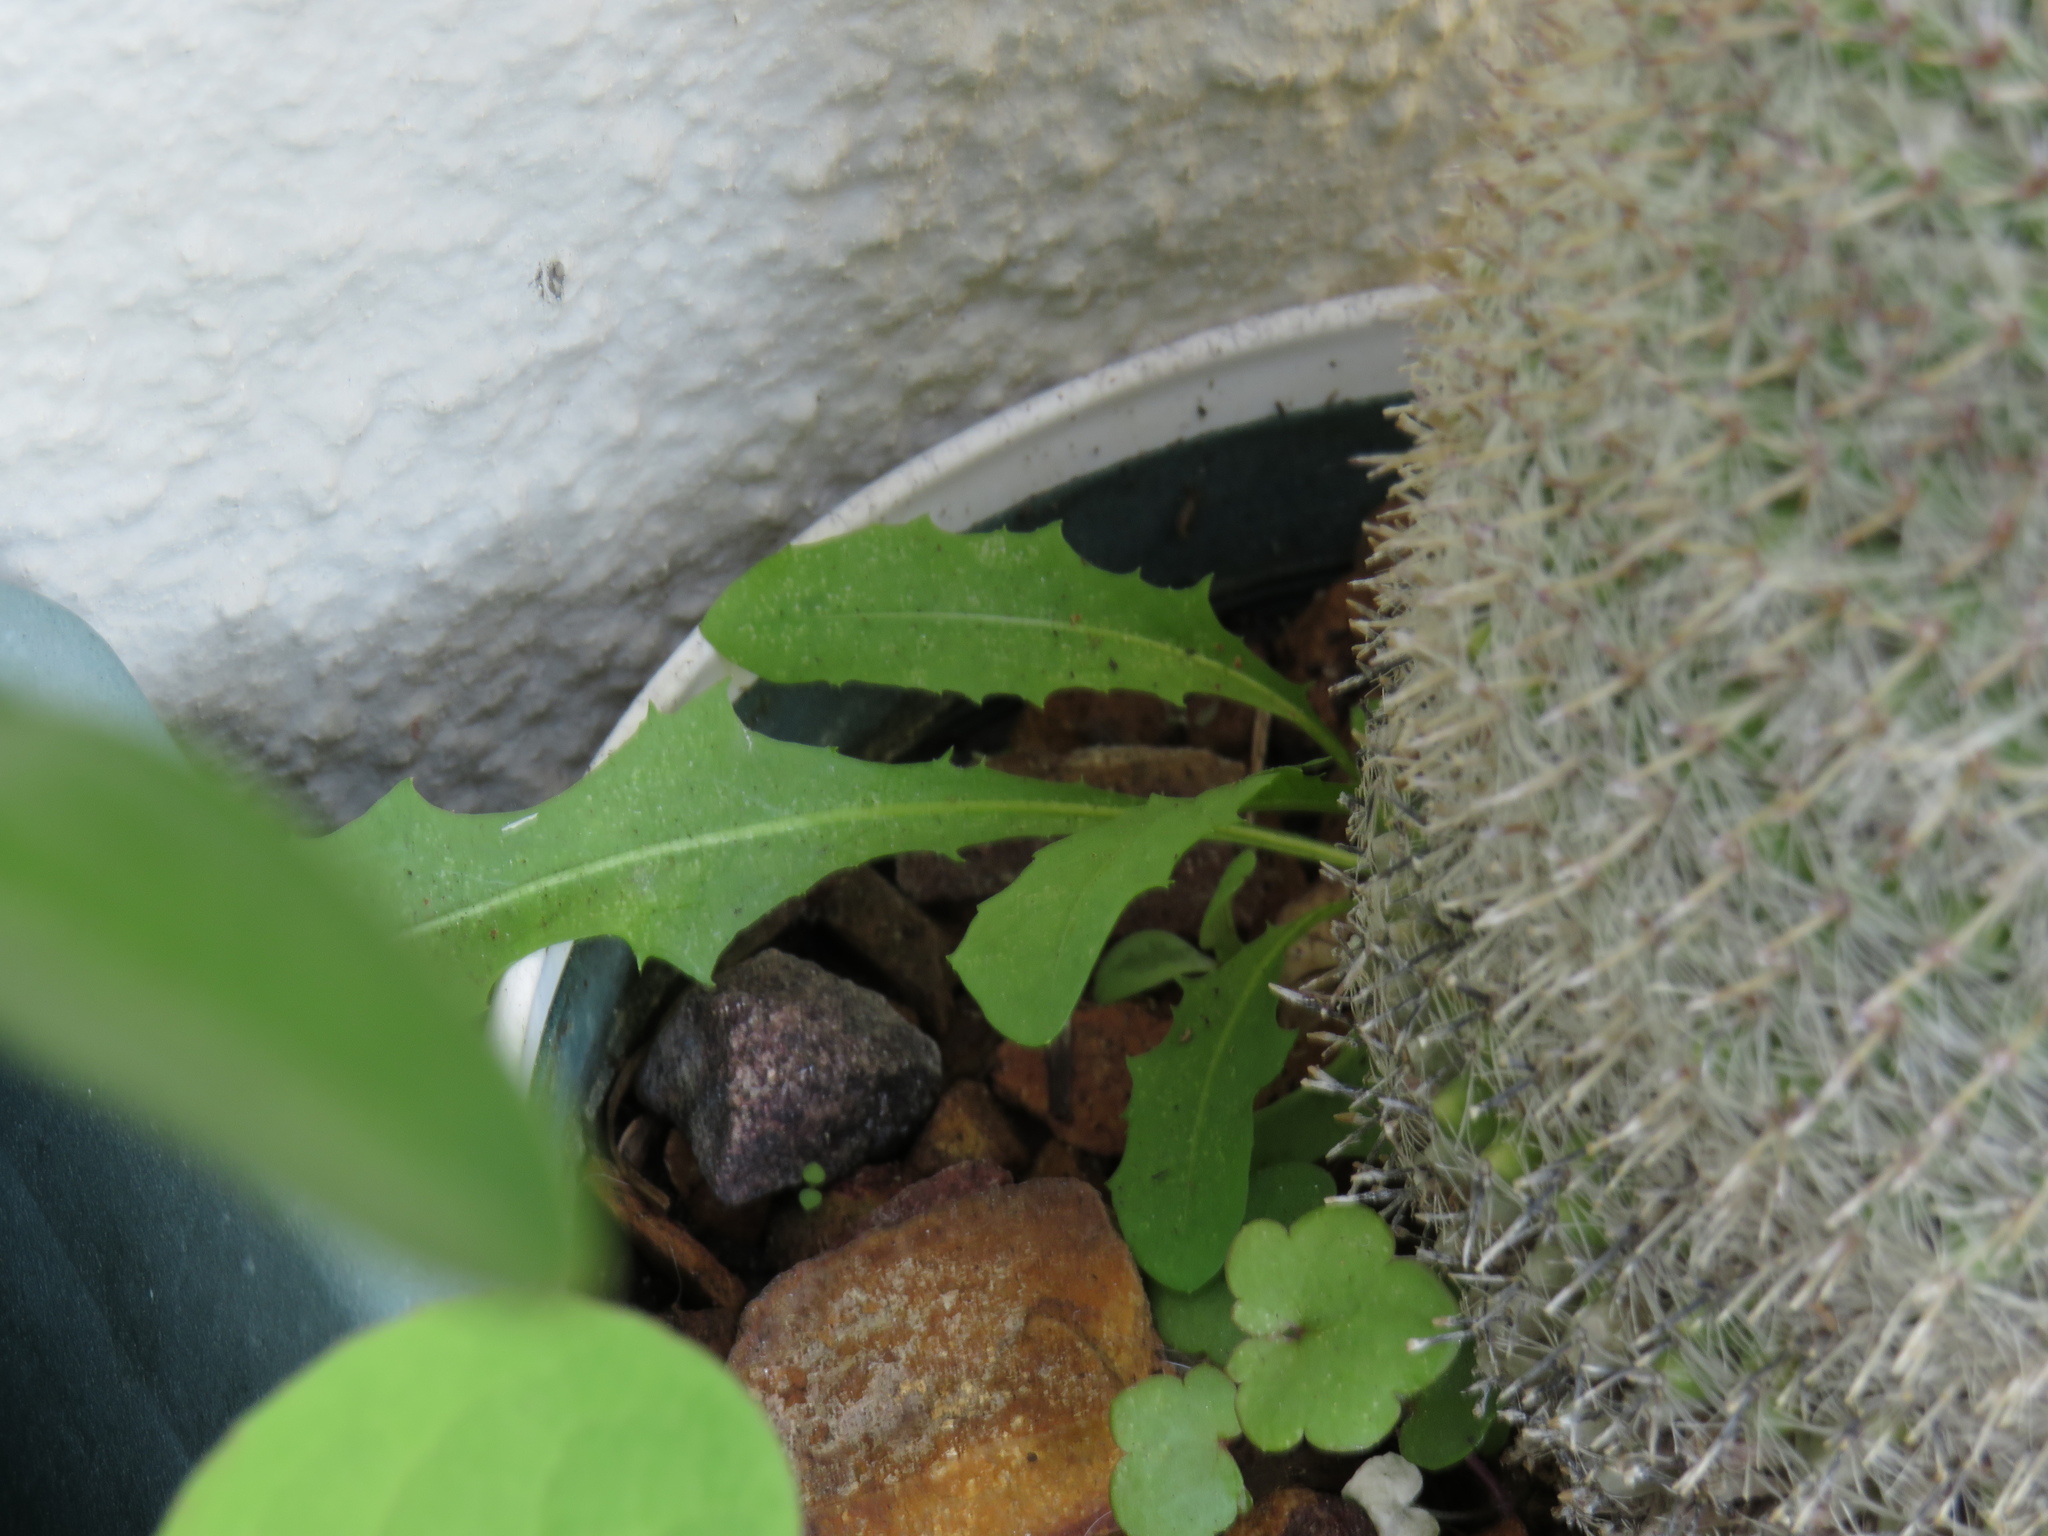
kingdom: Plantae
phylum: Tracheophyta
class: Magnoliopsida
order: Asterales
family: Asteraceae
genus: Taraxacum
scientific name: Taraxacum officinale
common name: Common dandelion
